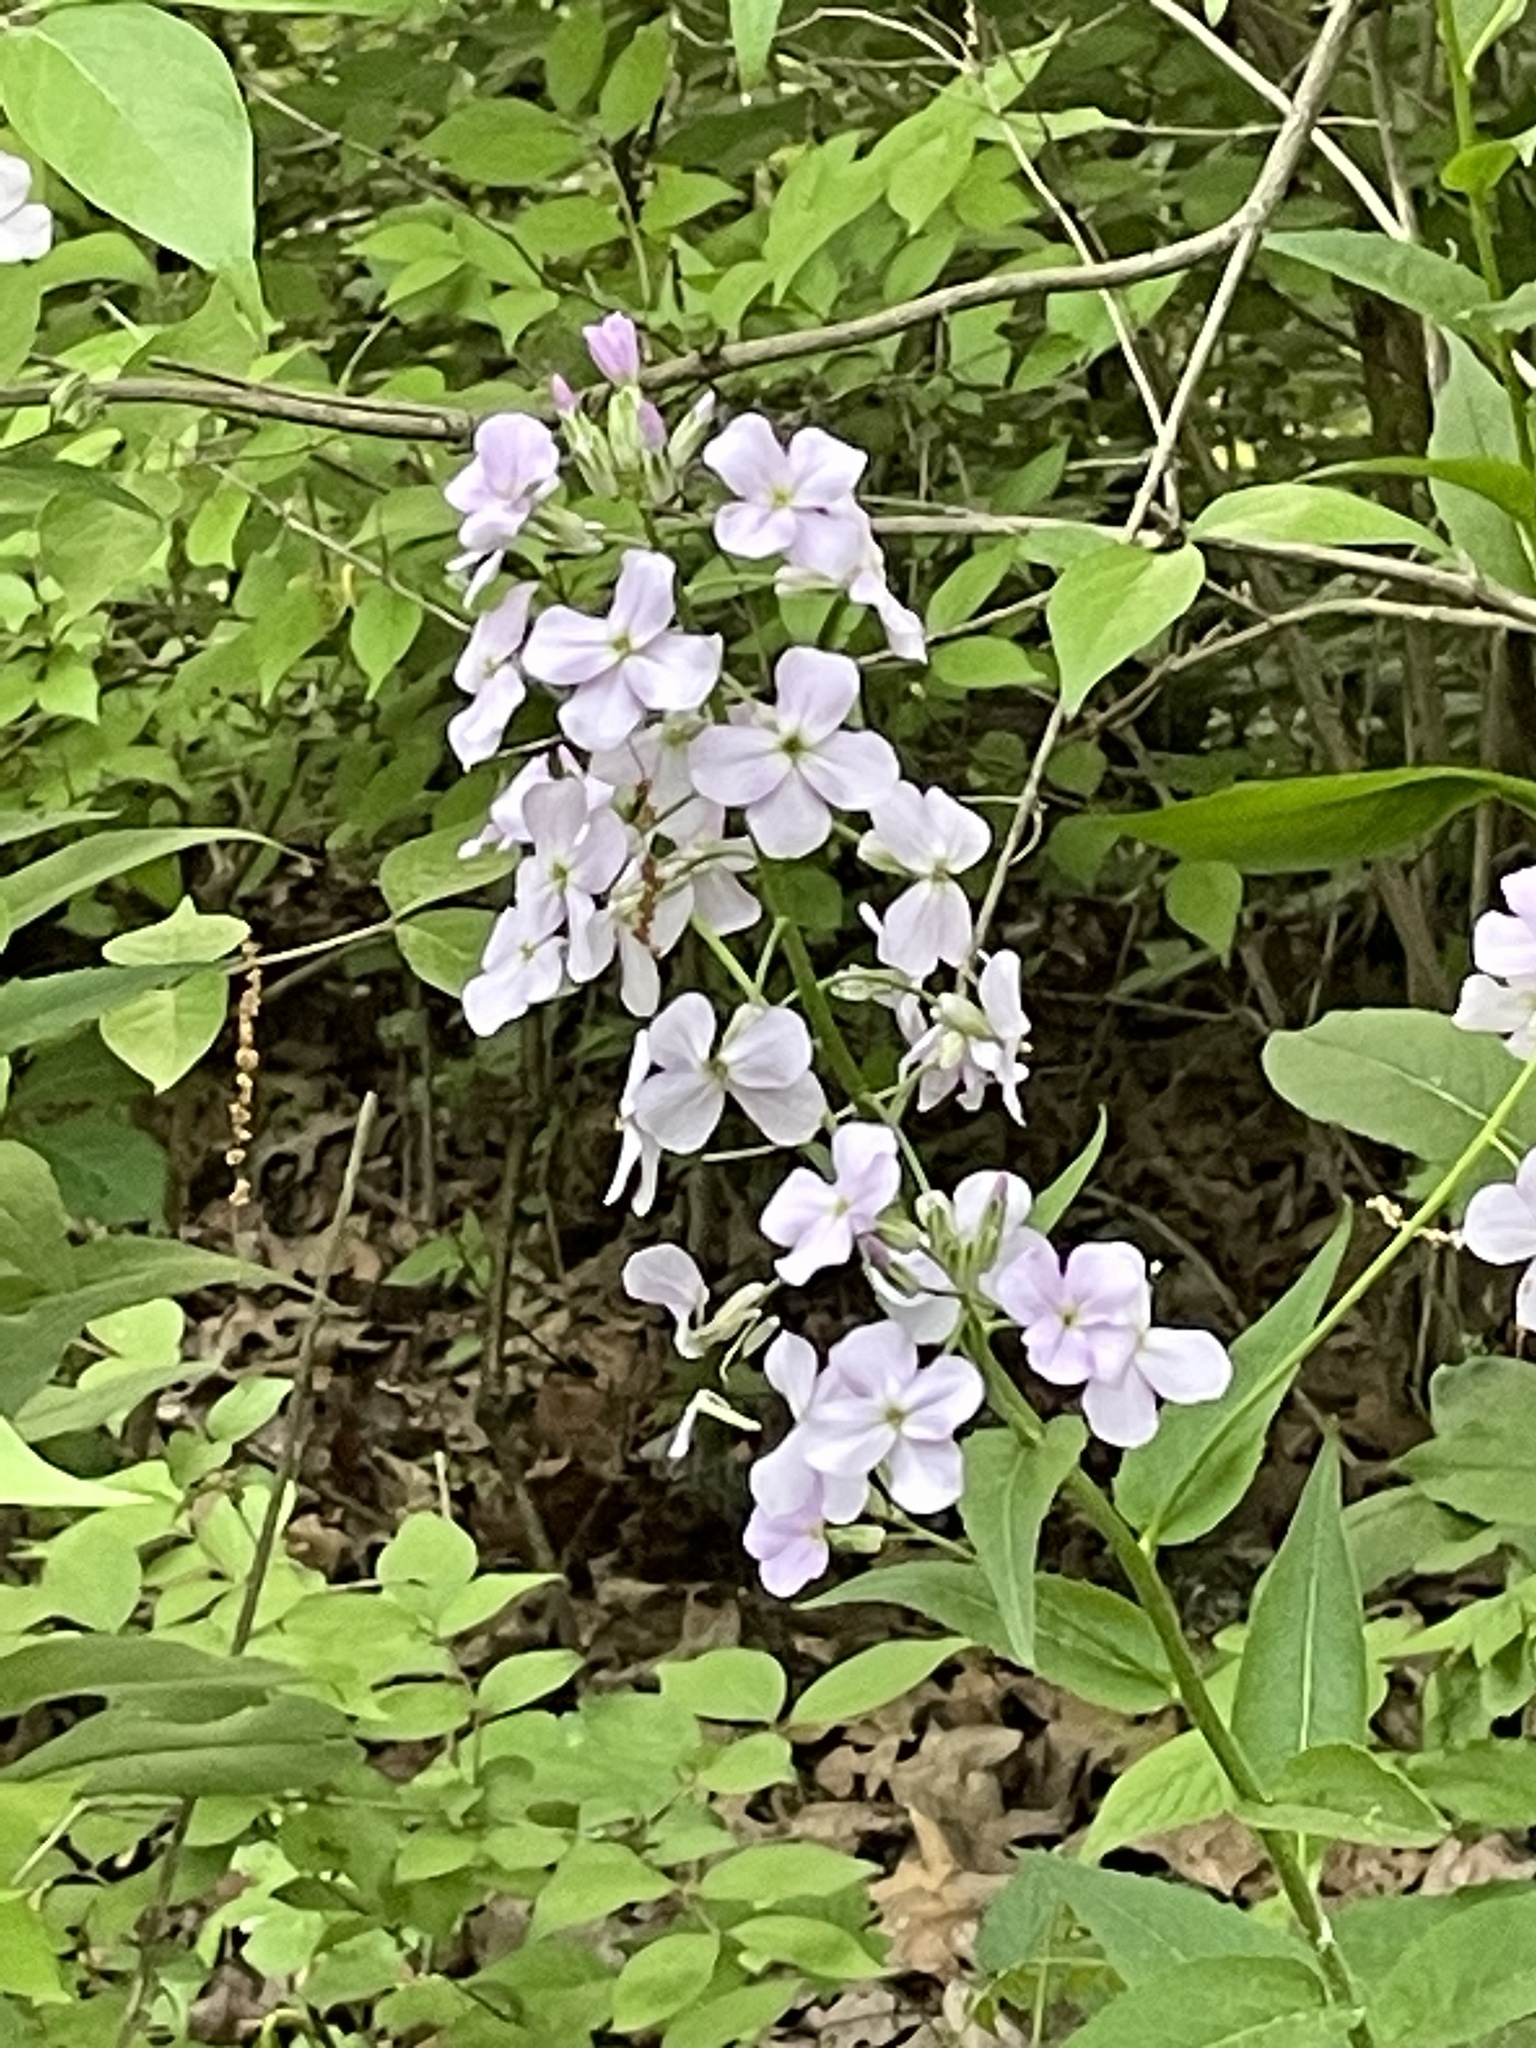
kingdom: Plantae
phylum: Tracheophyta
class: Magnoliopsida
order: Brassicales
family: Brassicaceae
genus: Hesperis
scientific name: Hesperis matronalis
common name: Dame's-violet
